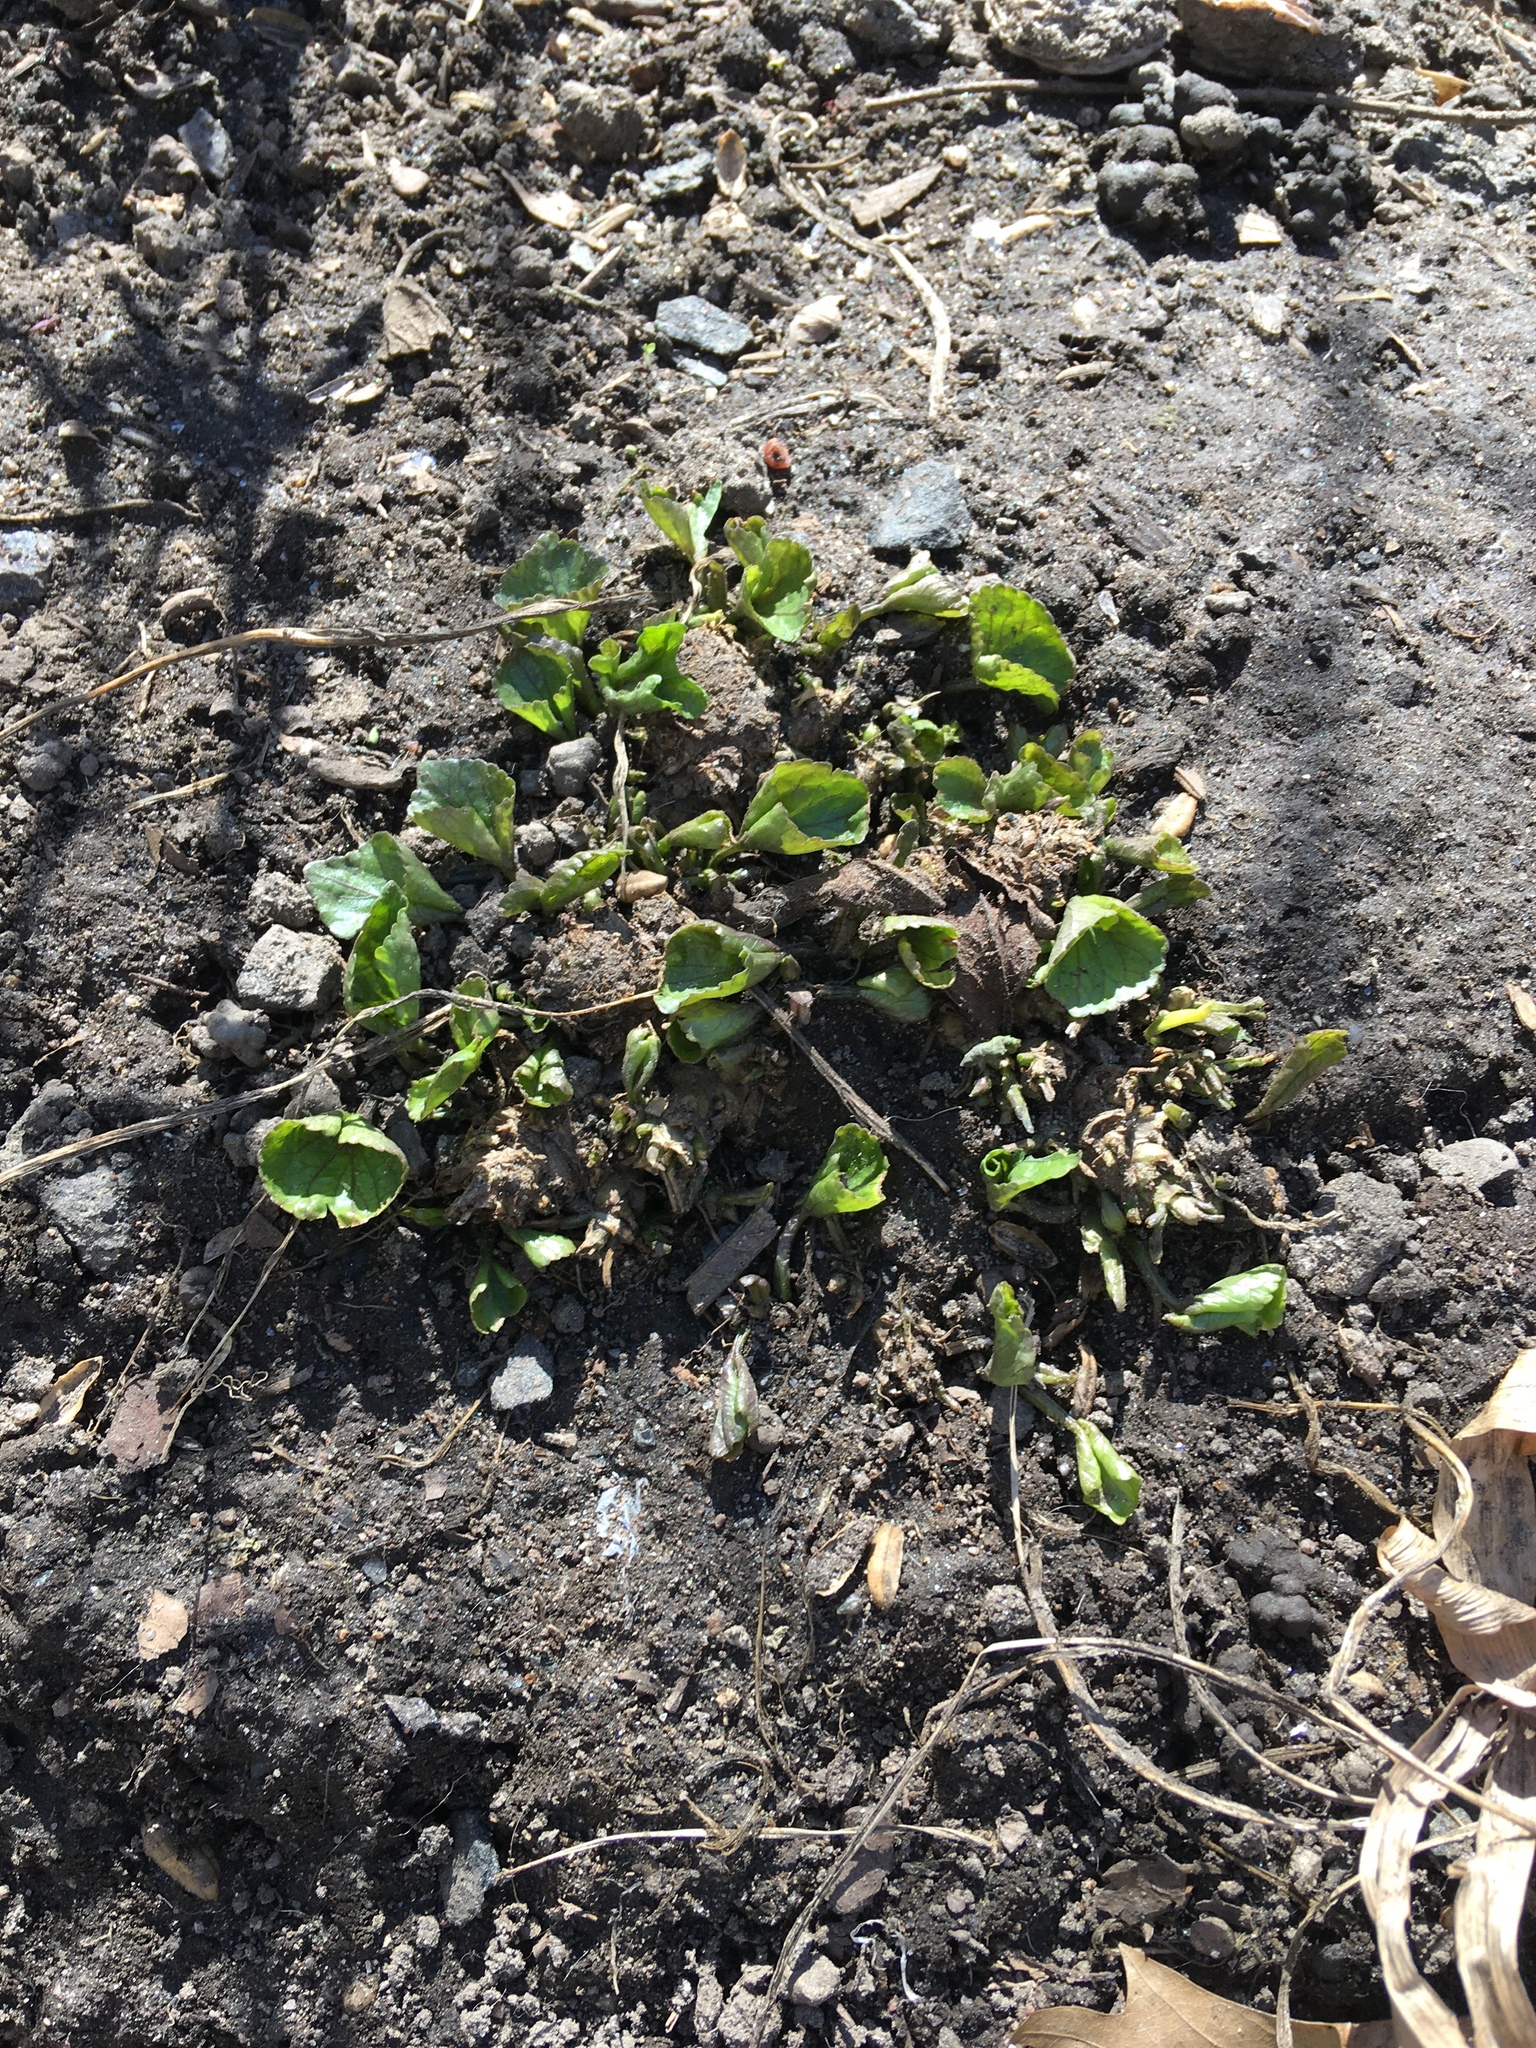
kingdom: Plantae
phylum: Tracheophyta
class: Magnoliopsida
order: Malpighiales
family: Violaceae
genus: Viola
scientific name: Viola sororia
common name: Dooryard violet
